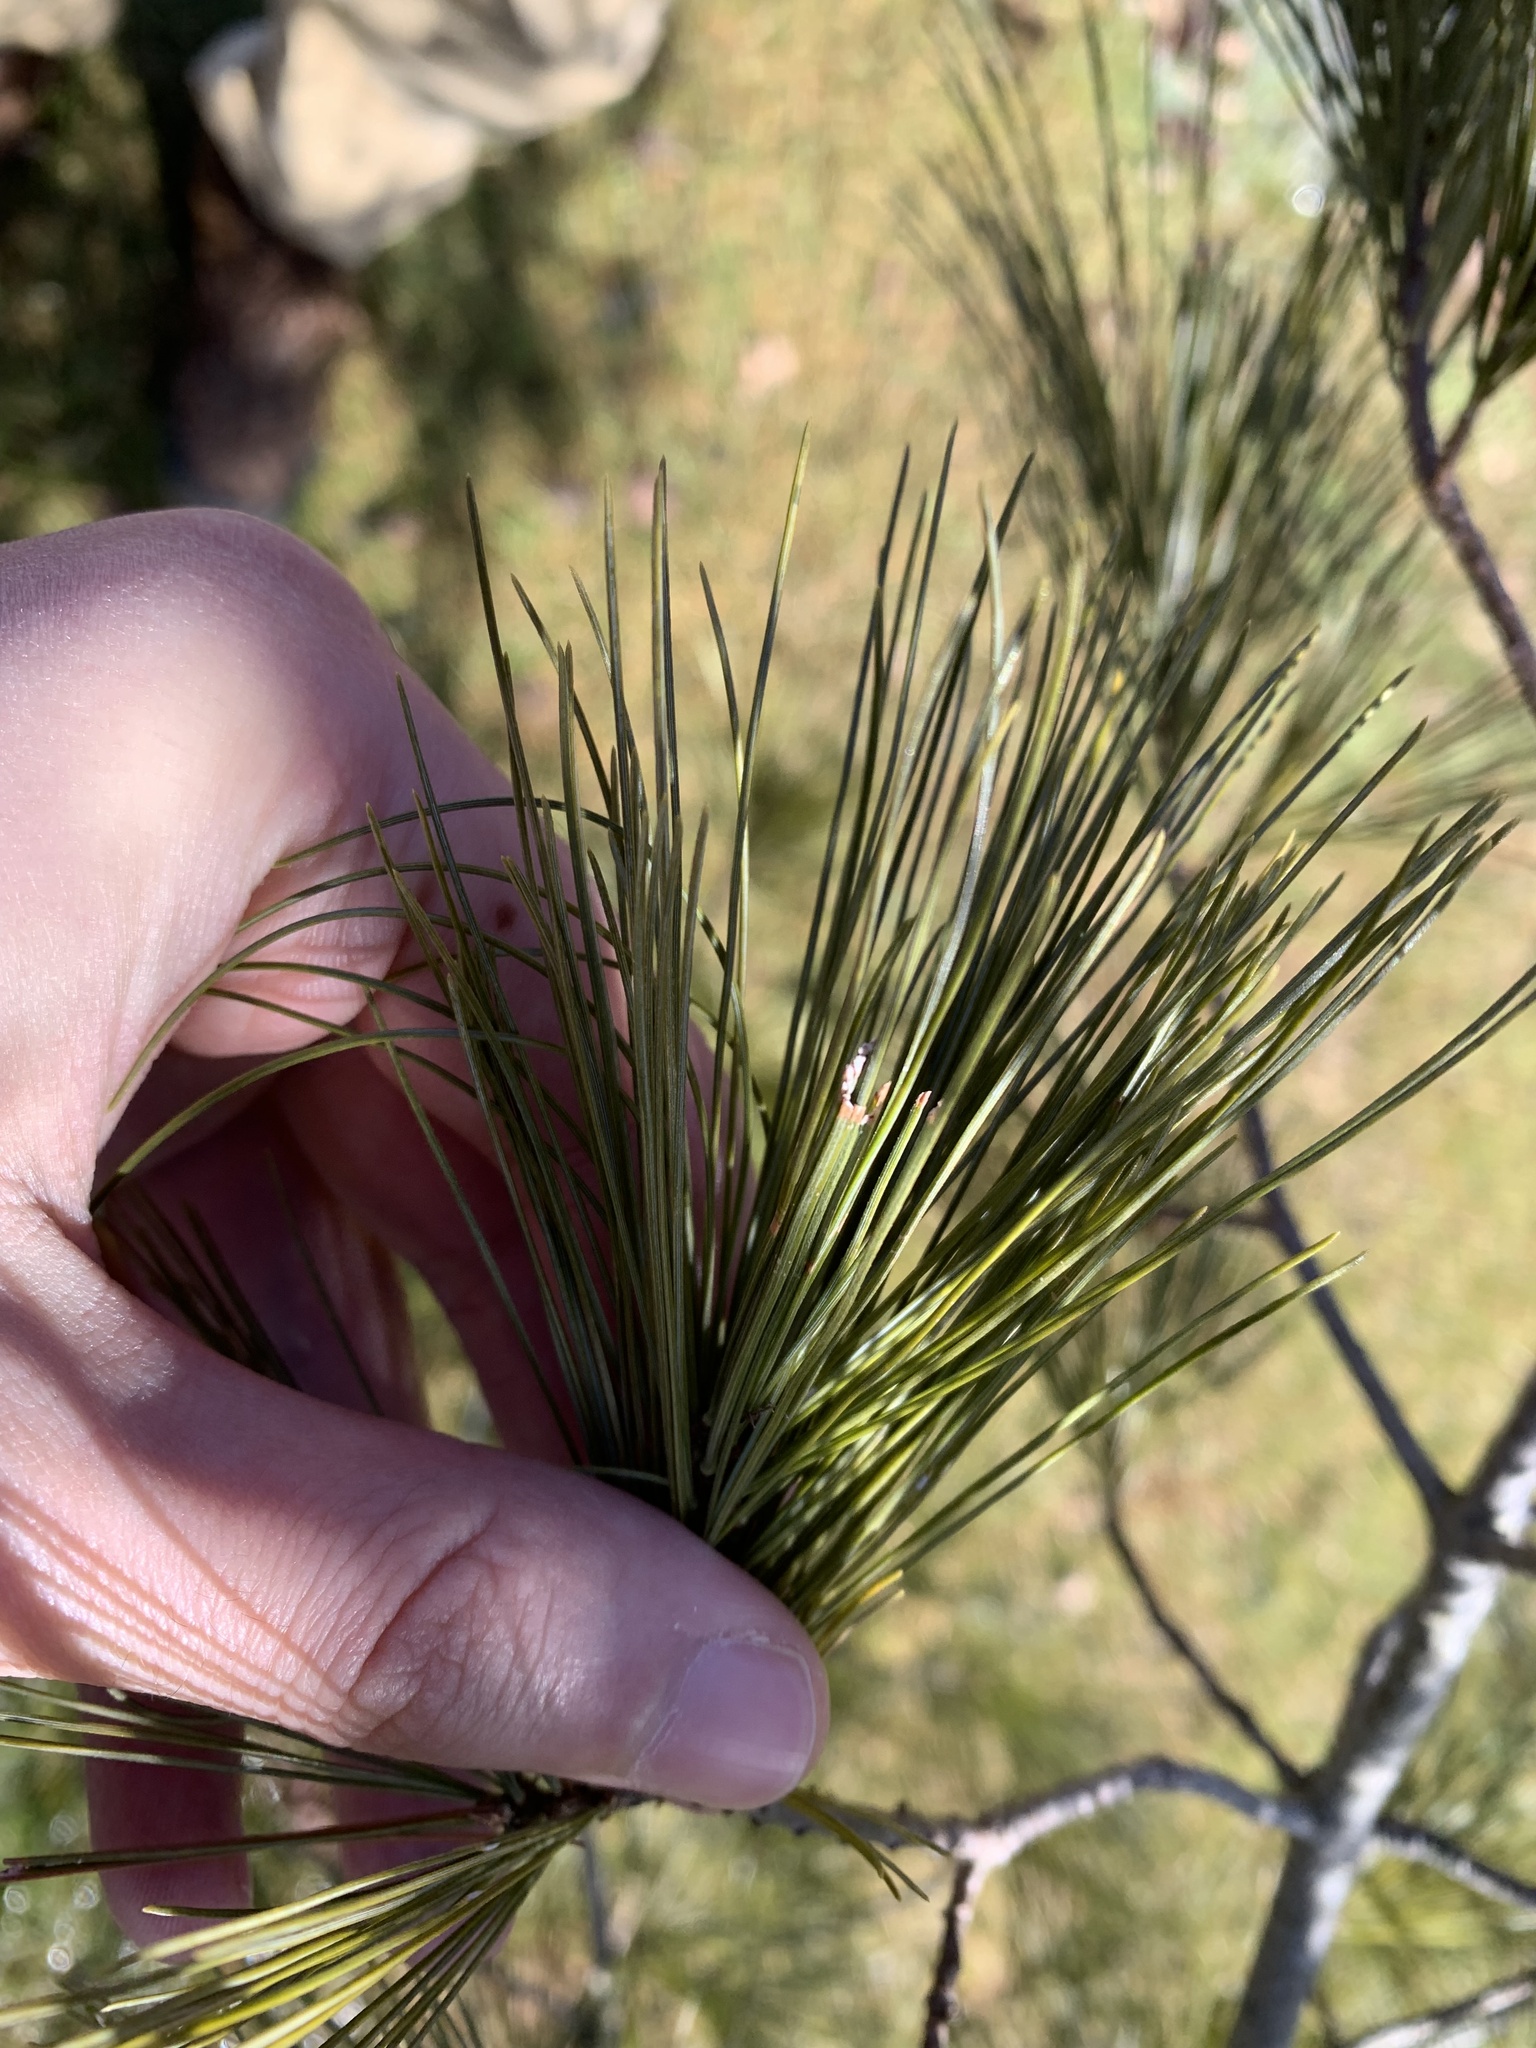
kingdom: Animalia
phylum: Arthropoda
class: Insecta
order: Lepidoptera
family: Tortricidae
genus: Argyrotaenia
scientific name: Argyrotaenia pinatubana
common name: Pine tube moth
